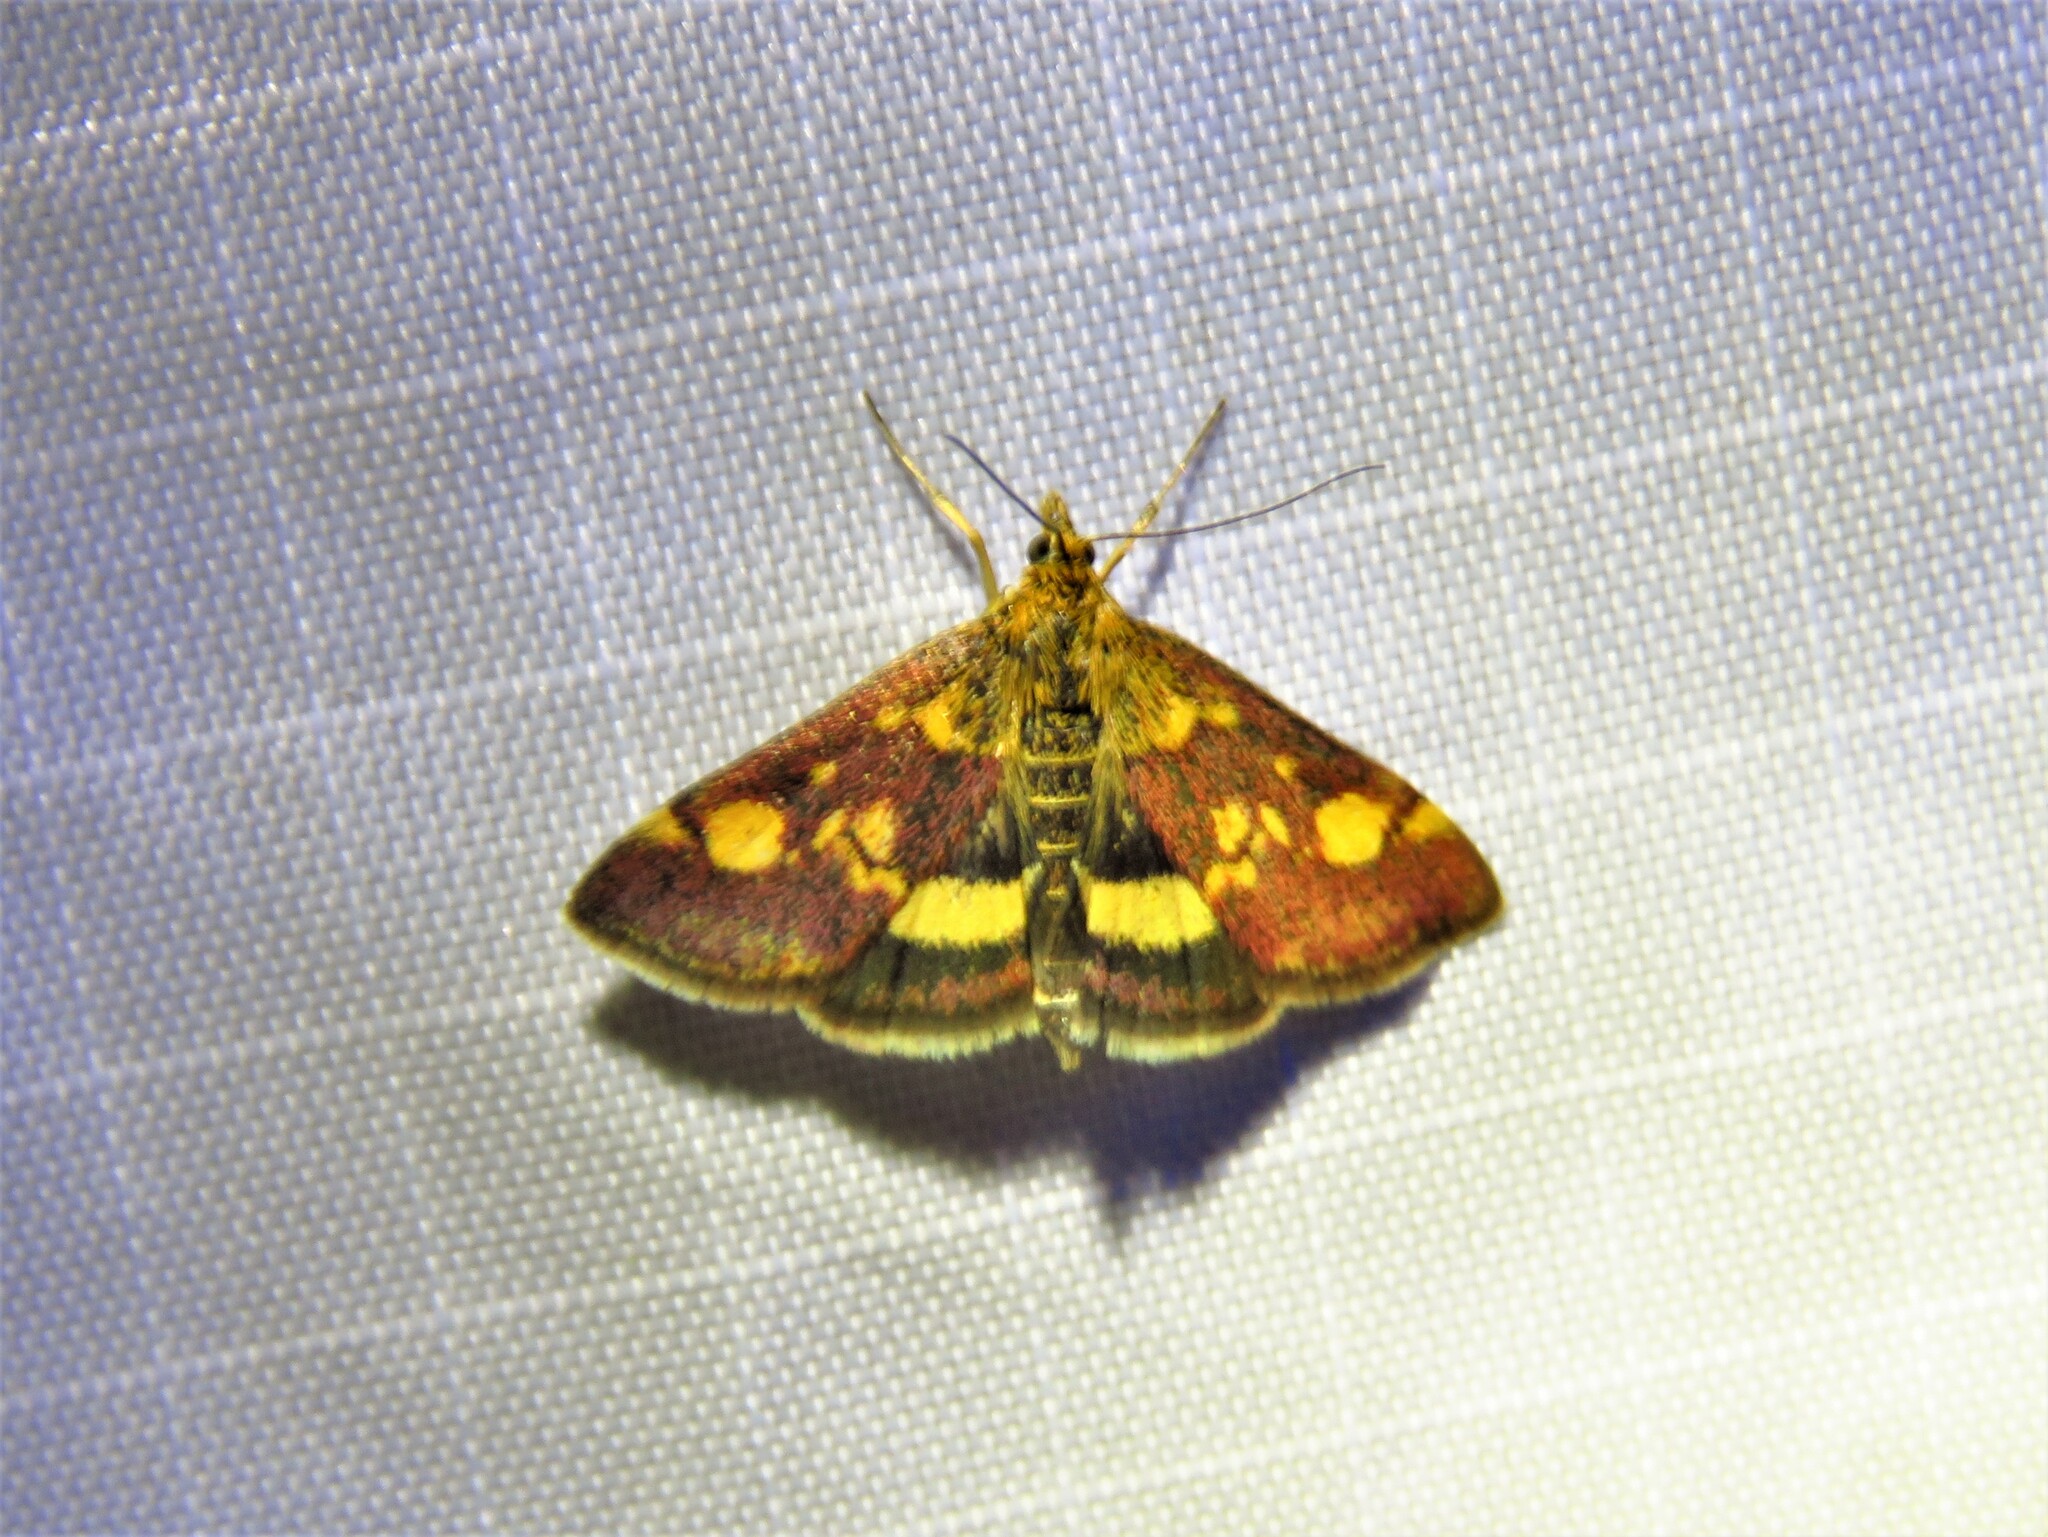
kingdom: Animalia
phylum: Arthropoda
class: Insecta
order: Lepidoptera
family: Crambidae
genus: Pyrausta
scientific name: Pyrausta aurata
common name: Small purple & gold
